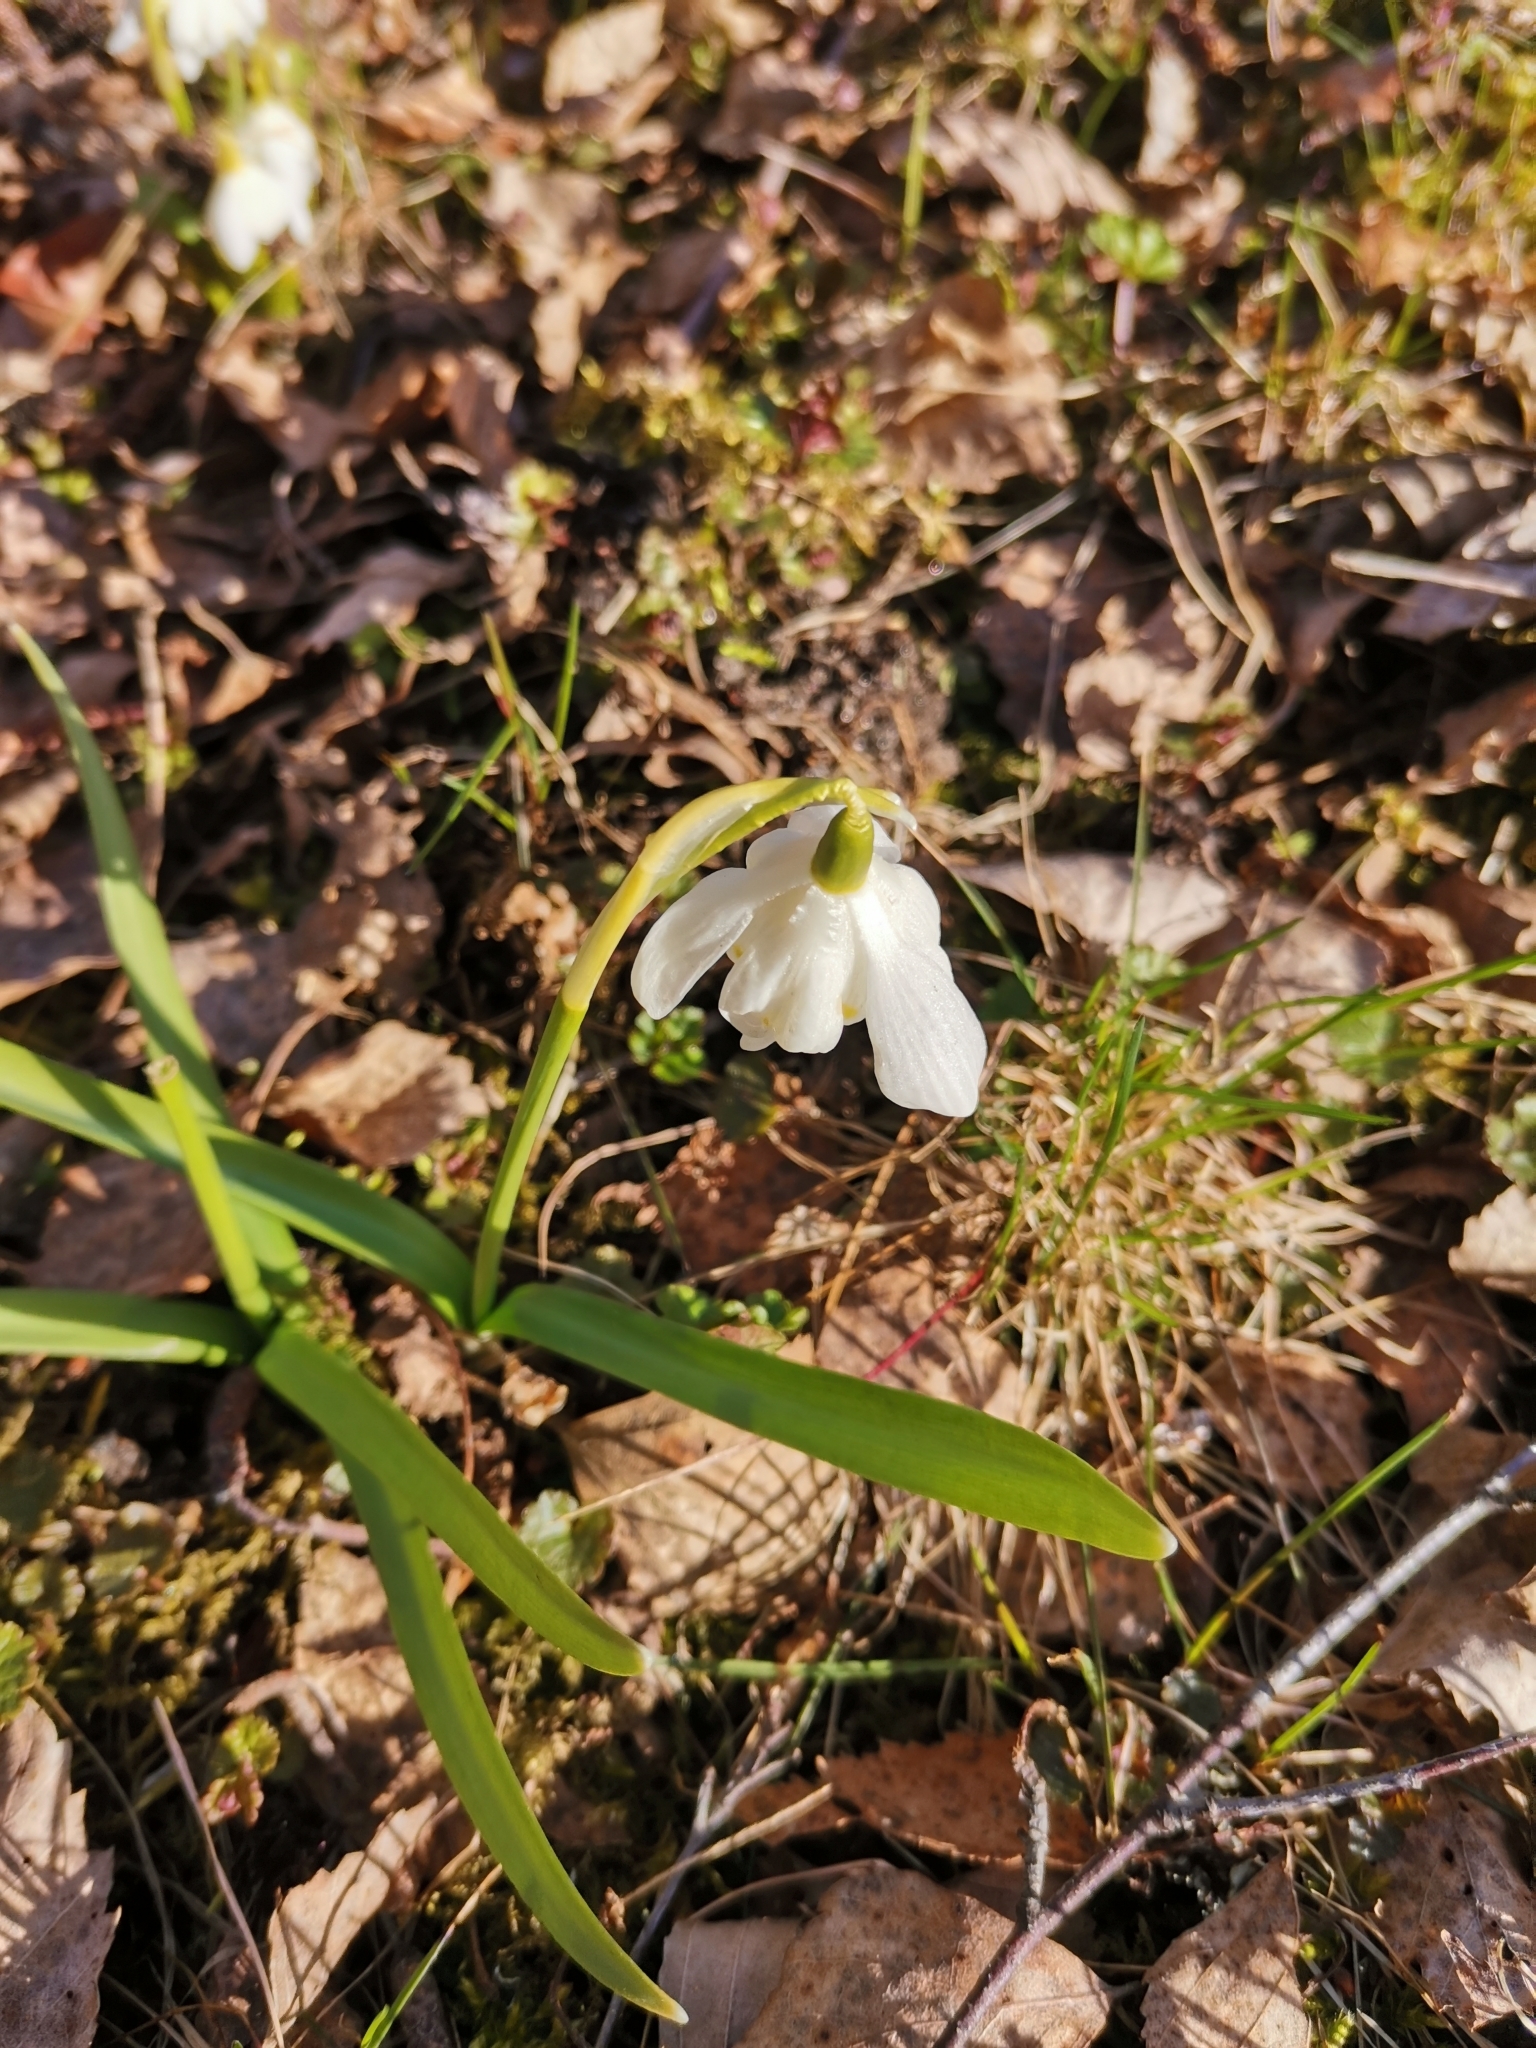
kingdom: Plantae
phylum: Tracheophyta
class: Liliopsida
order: Asparagales
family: Amaryllidaceae
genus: Galanthus
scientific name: Galanthus nivalis
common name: Snowdrop
